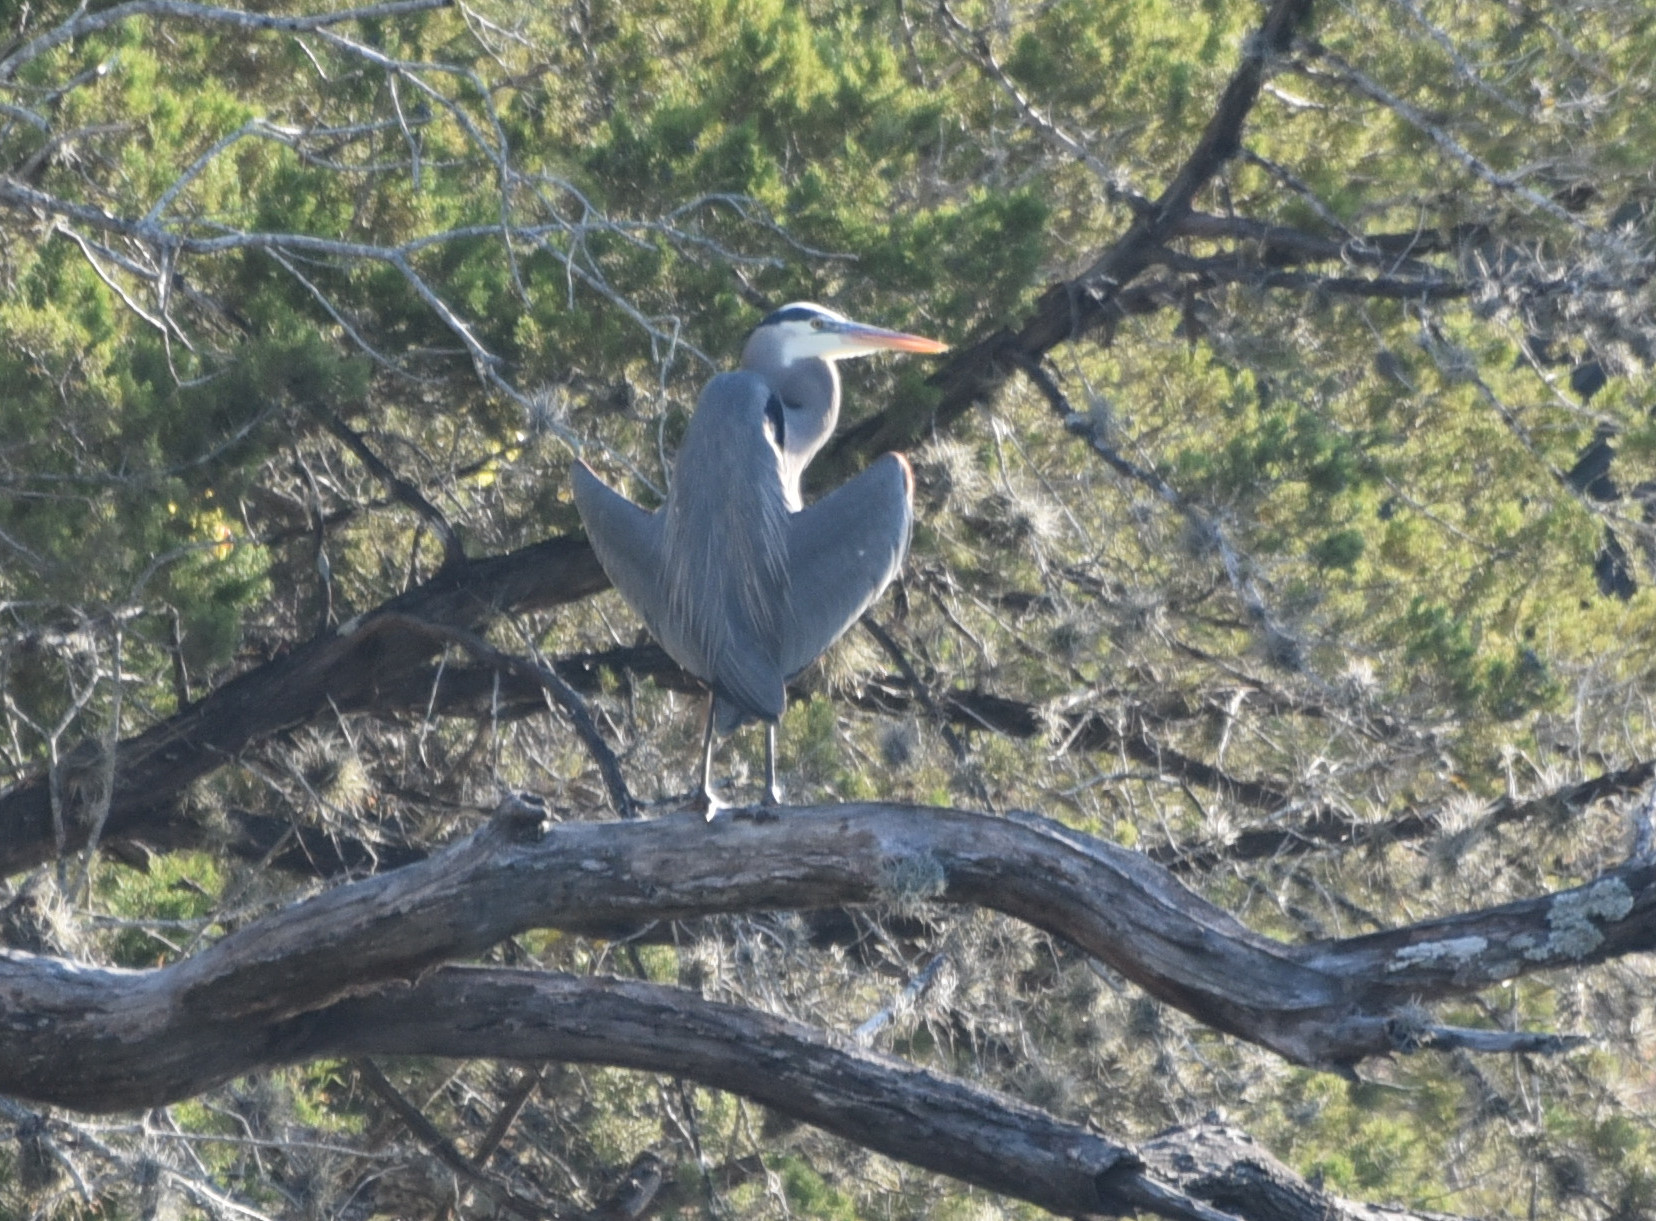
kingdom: Animalia
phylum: Chordata
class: Aves
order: Pelecaniformes
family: Ardeidae
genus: Ardea
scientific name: Ardea herodias
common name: Great blue heron
